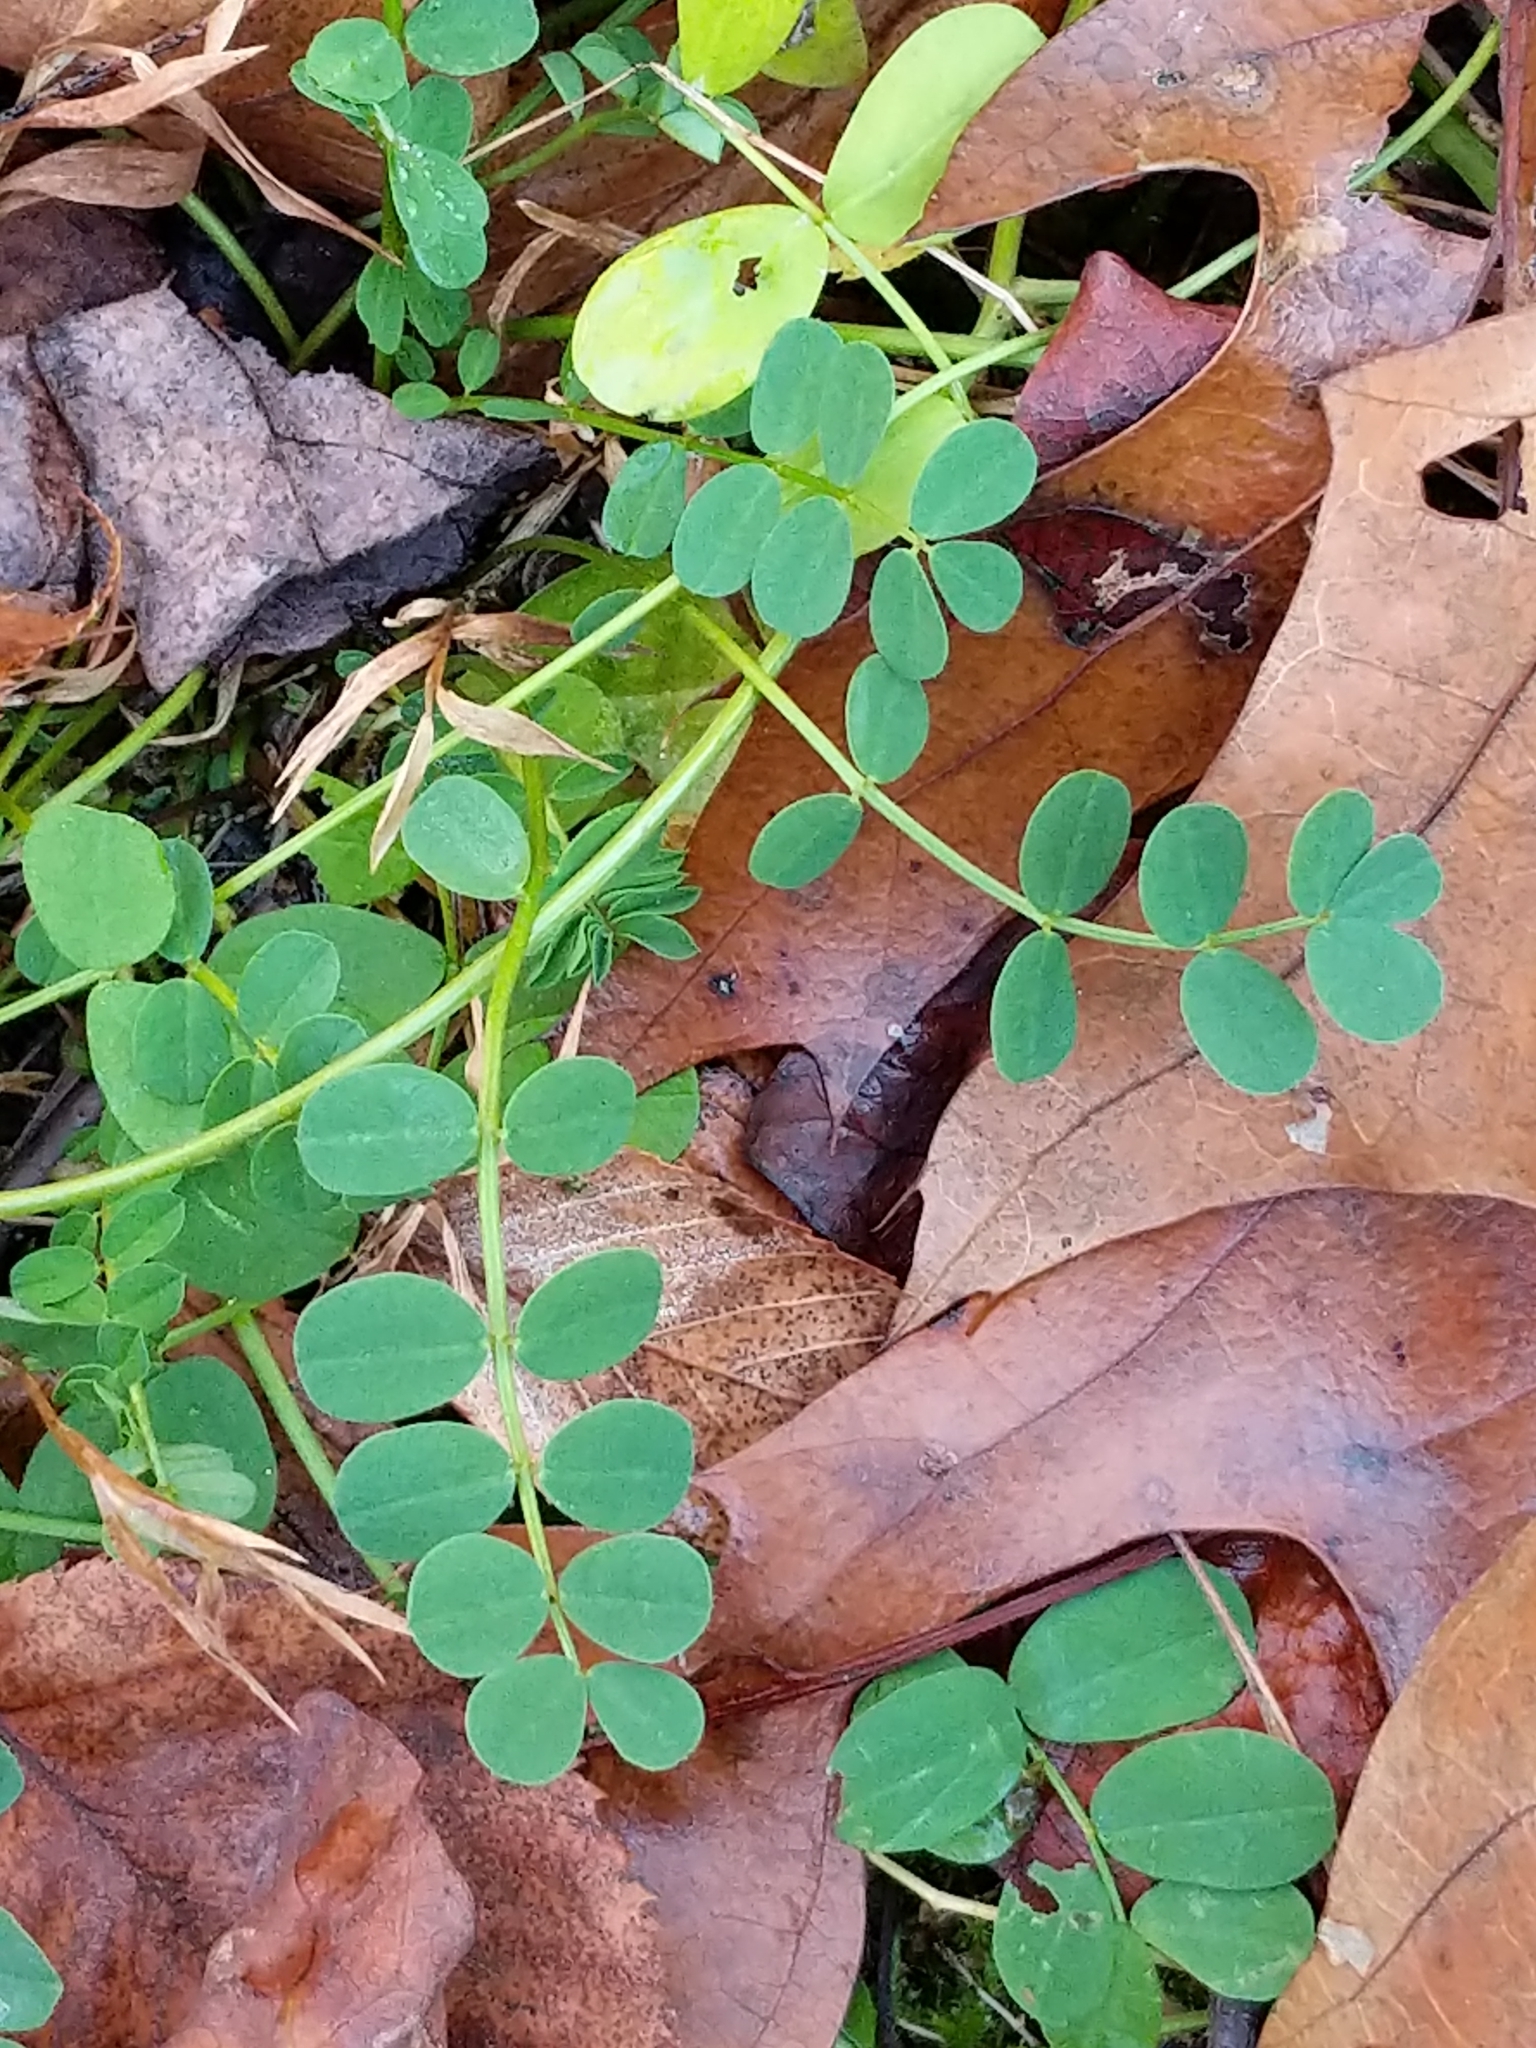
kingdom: Plantae
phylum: Tracheophyta
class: Magnoliopsida
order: Fabales
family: Fabaceae
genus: Coronilla
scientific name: Coronilla varia
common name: Crownvetch
